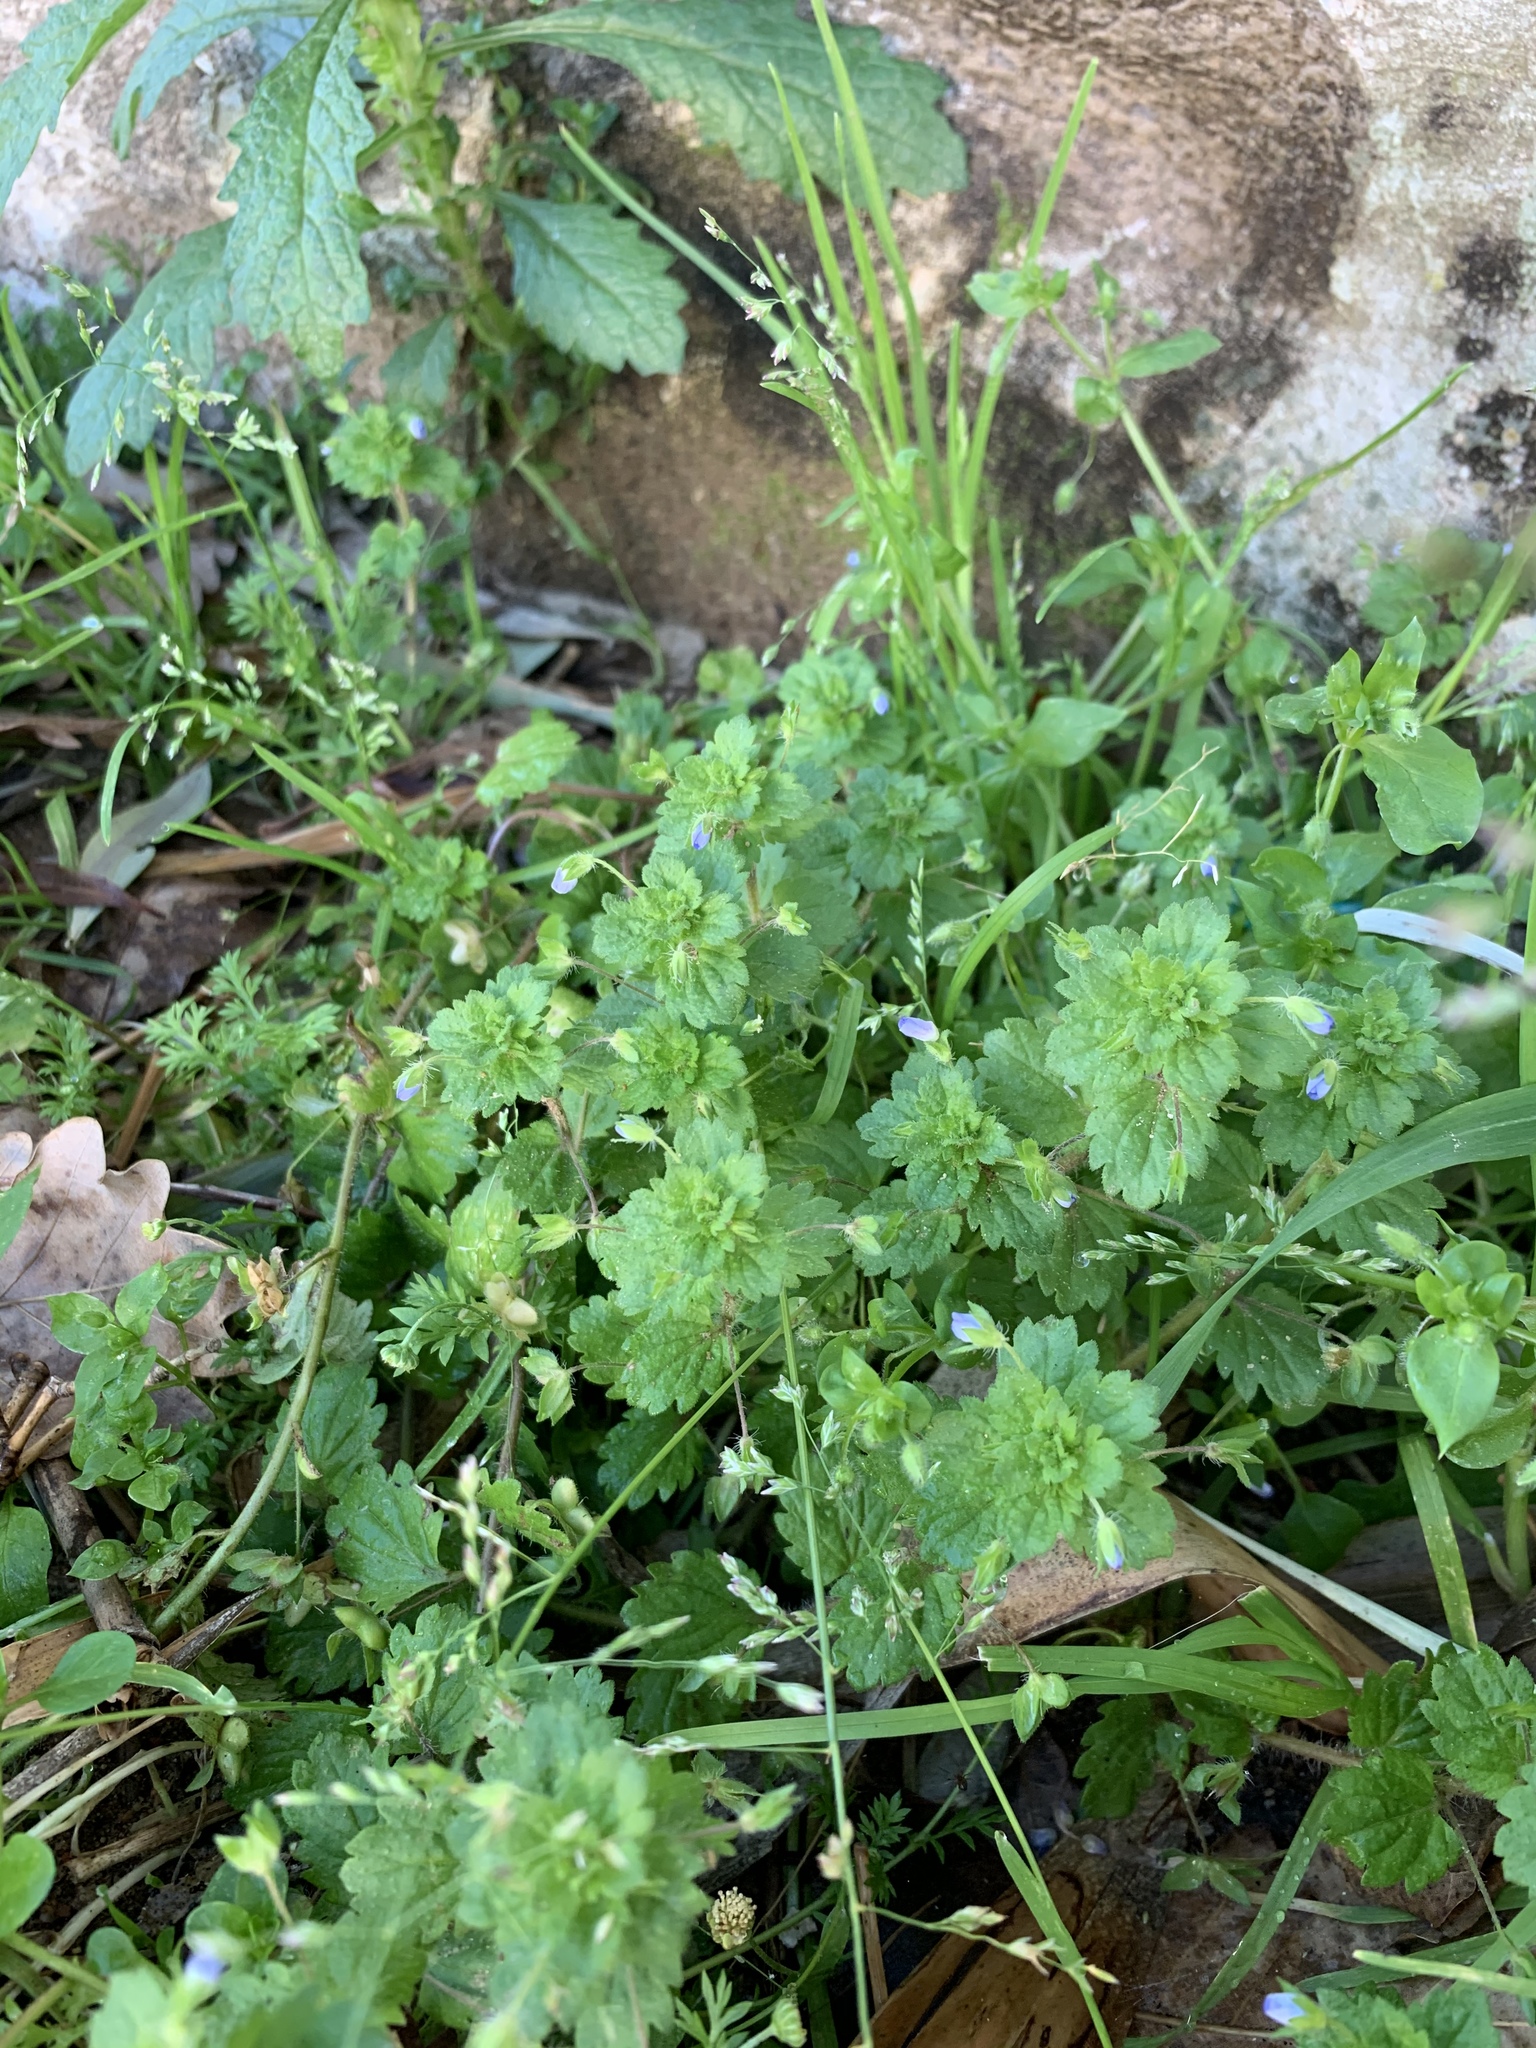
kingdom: Plantae
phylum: Tracheophyta
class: Magnoliopsida
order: Lamiales
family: Plantaginaceae
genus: Veronica
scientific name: Veronica persica
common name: Common field-speedwell
